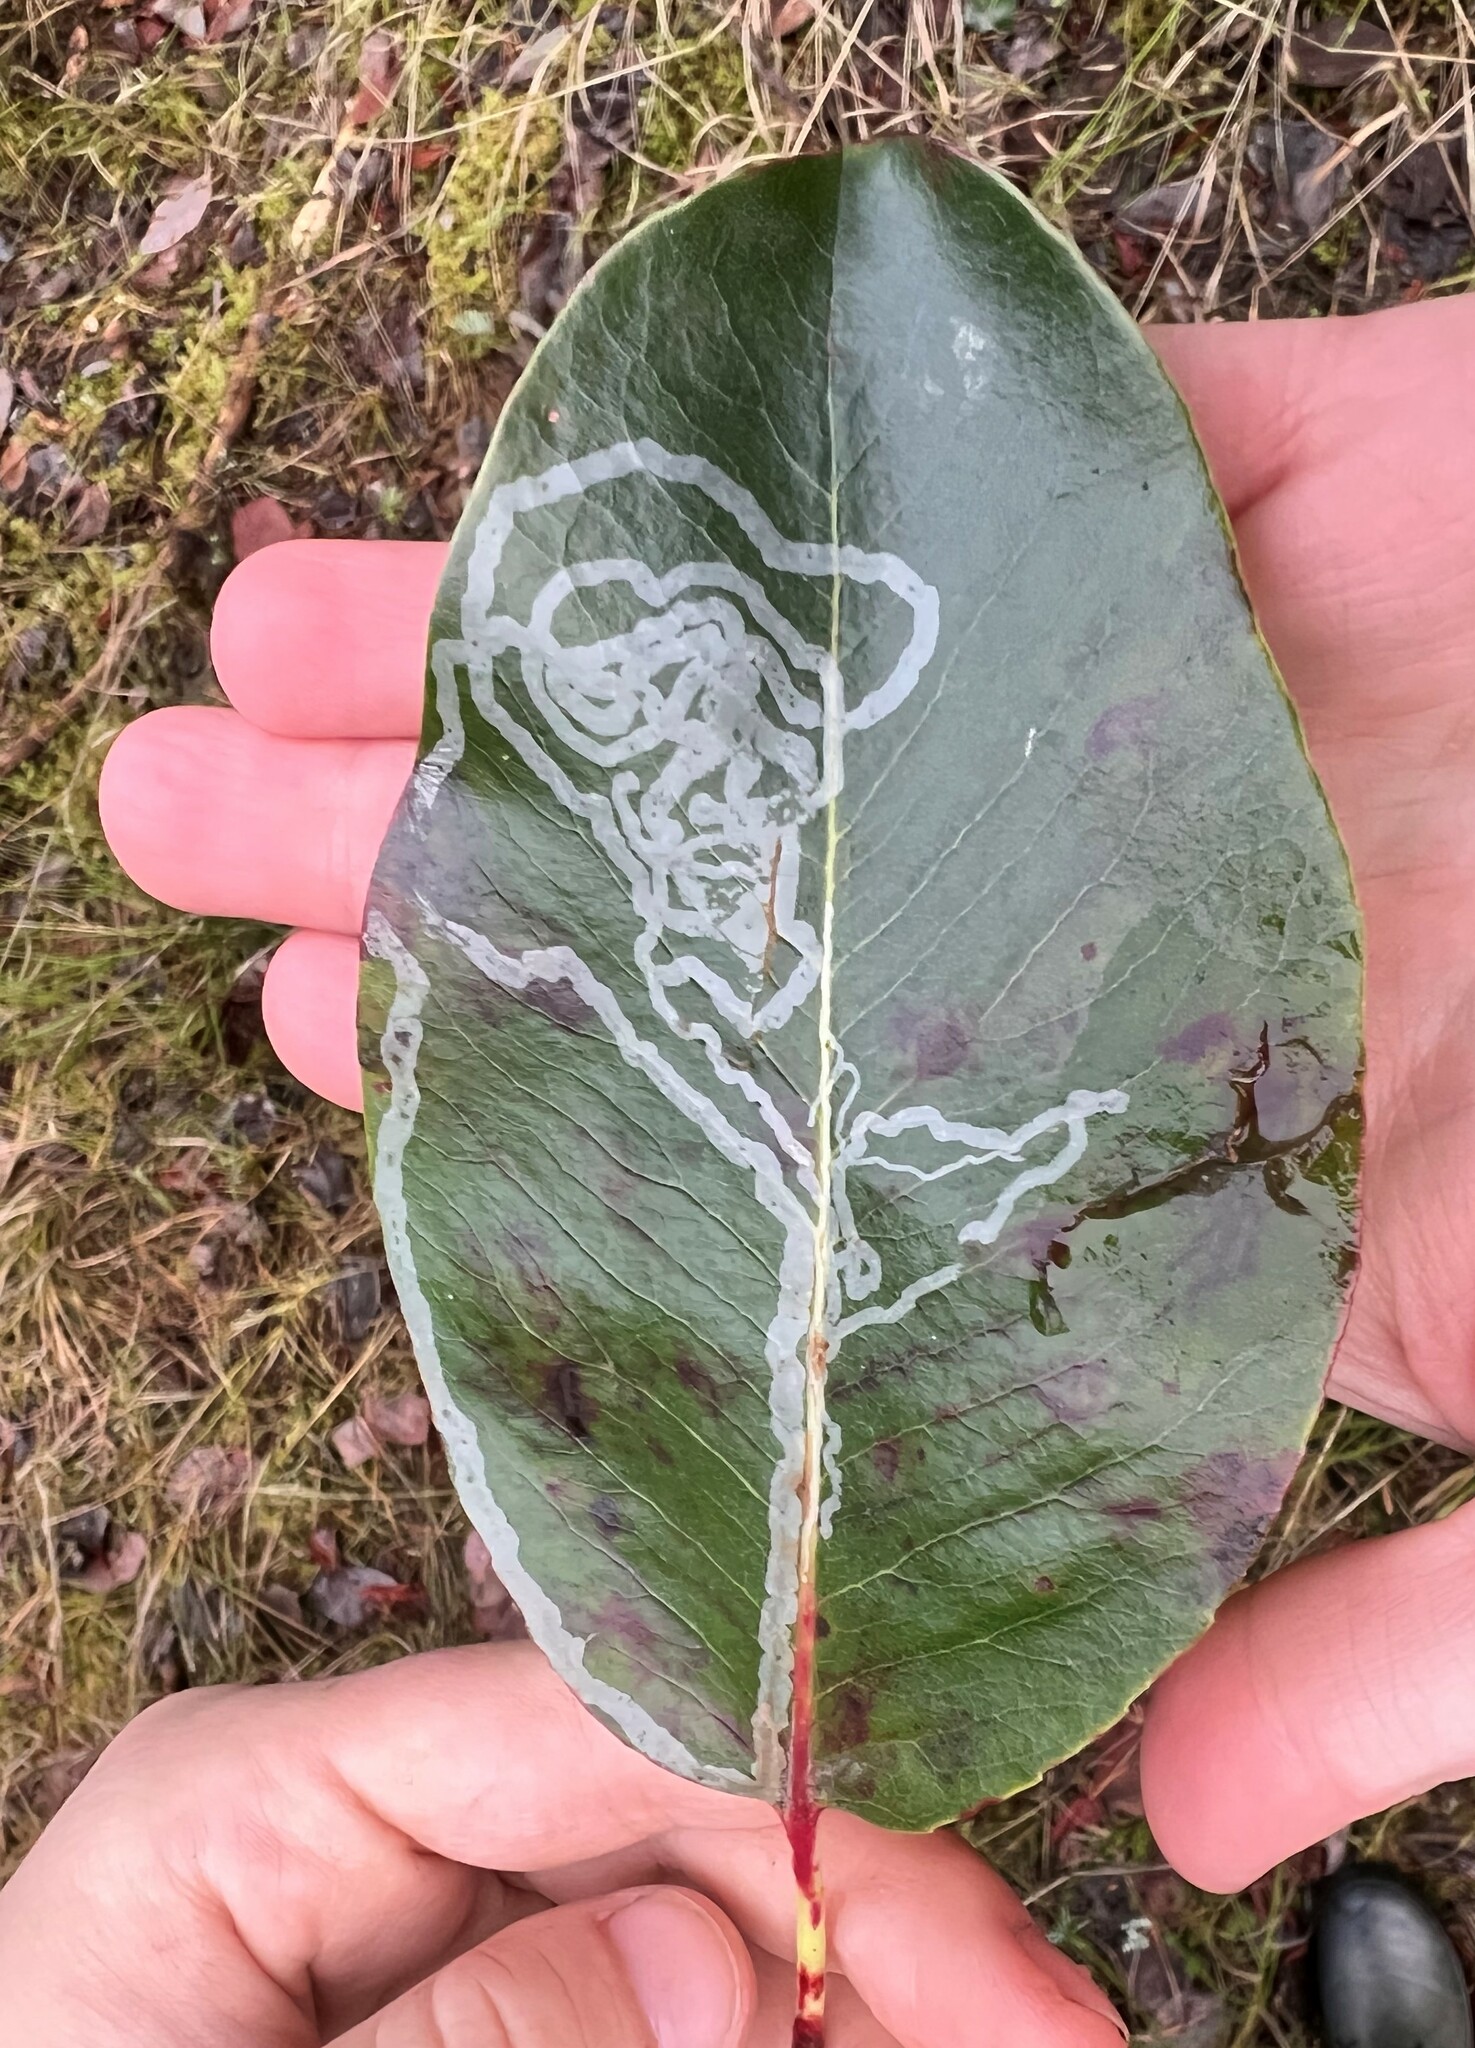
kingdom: Animalia
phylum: Arthropoda
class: Insecta
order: Lepidoptera
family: Gracillariidae
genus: Marmara
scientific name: Marmara arbutiella
